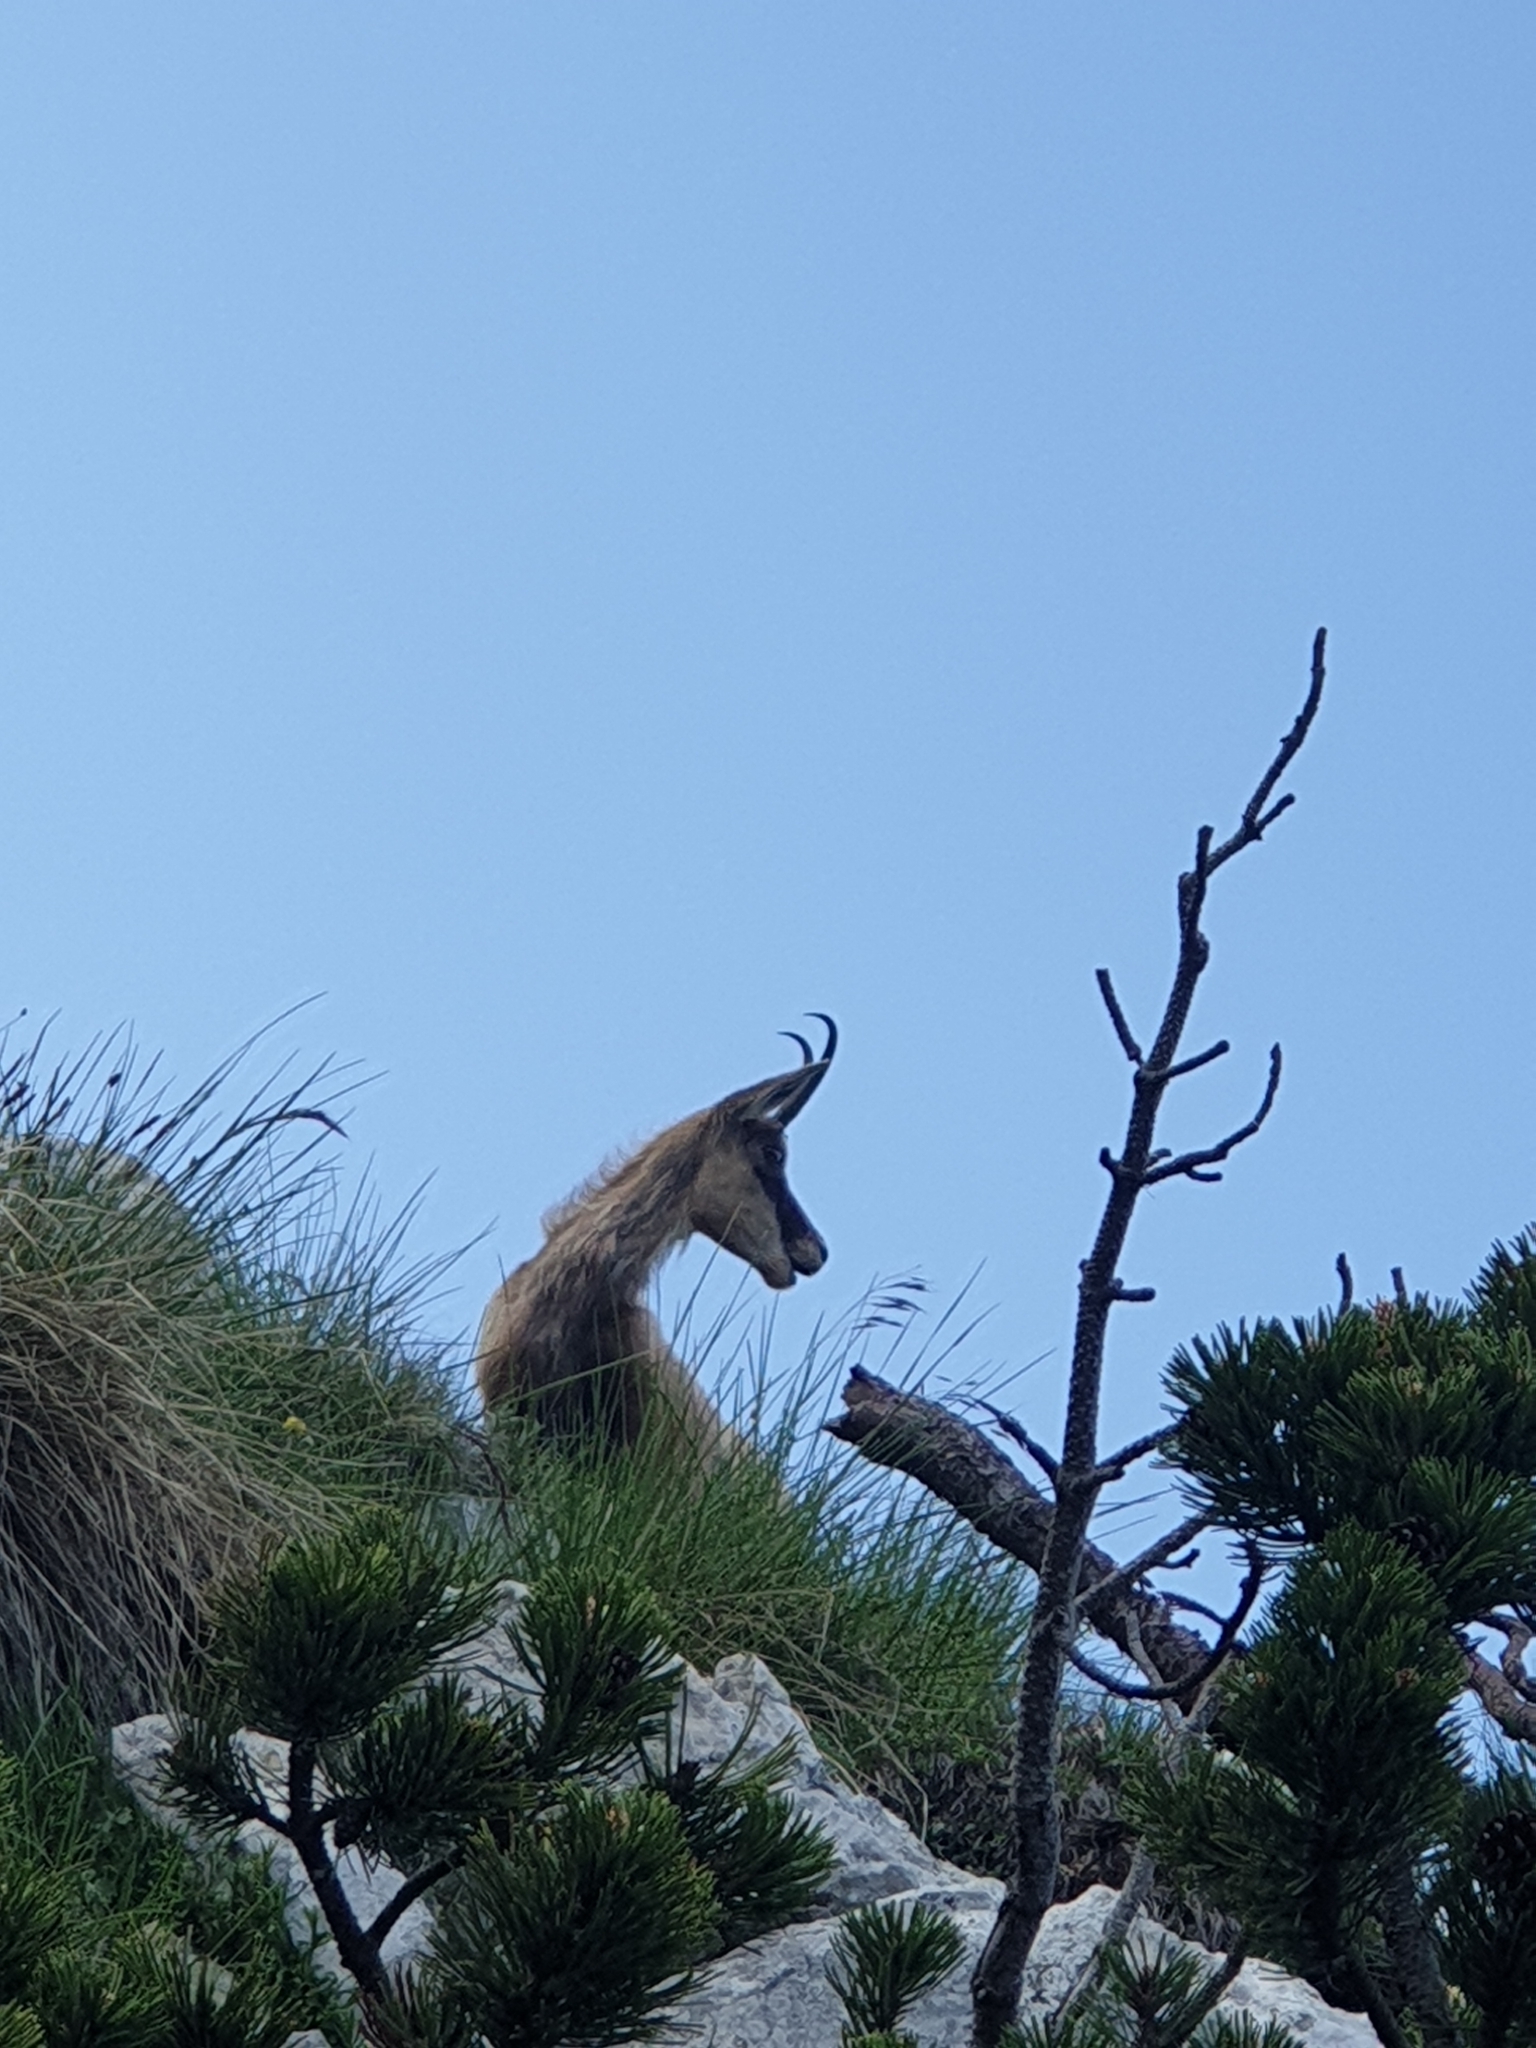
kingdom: Animalia
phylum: Chordata
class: Mammalia
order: Artiodactyla
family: Bovidae
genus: Rupicapra
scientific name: Rupicapra rupicapra
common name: Chamois
